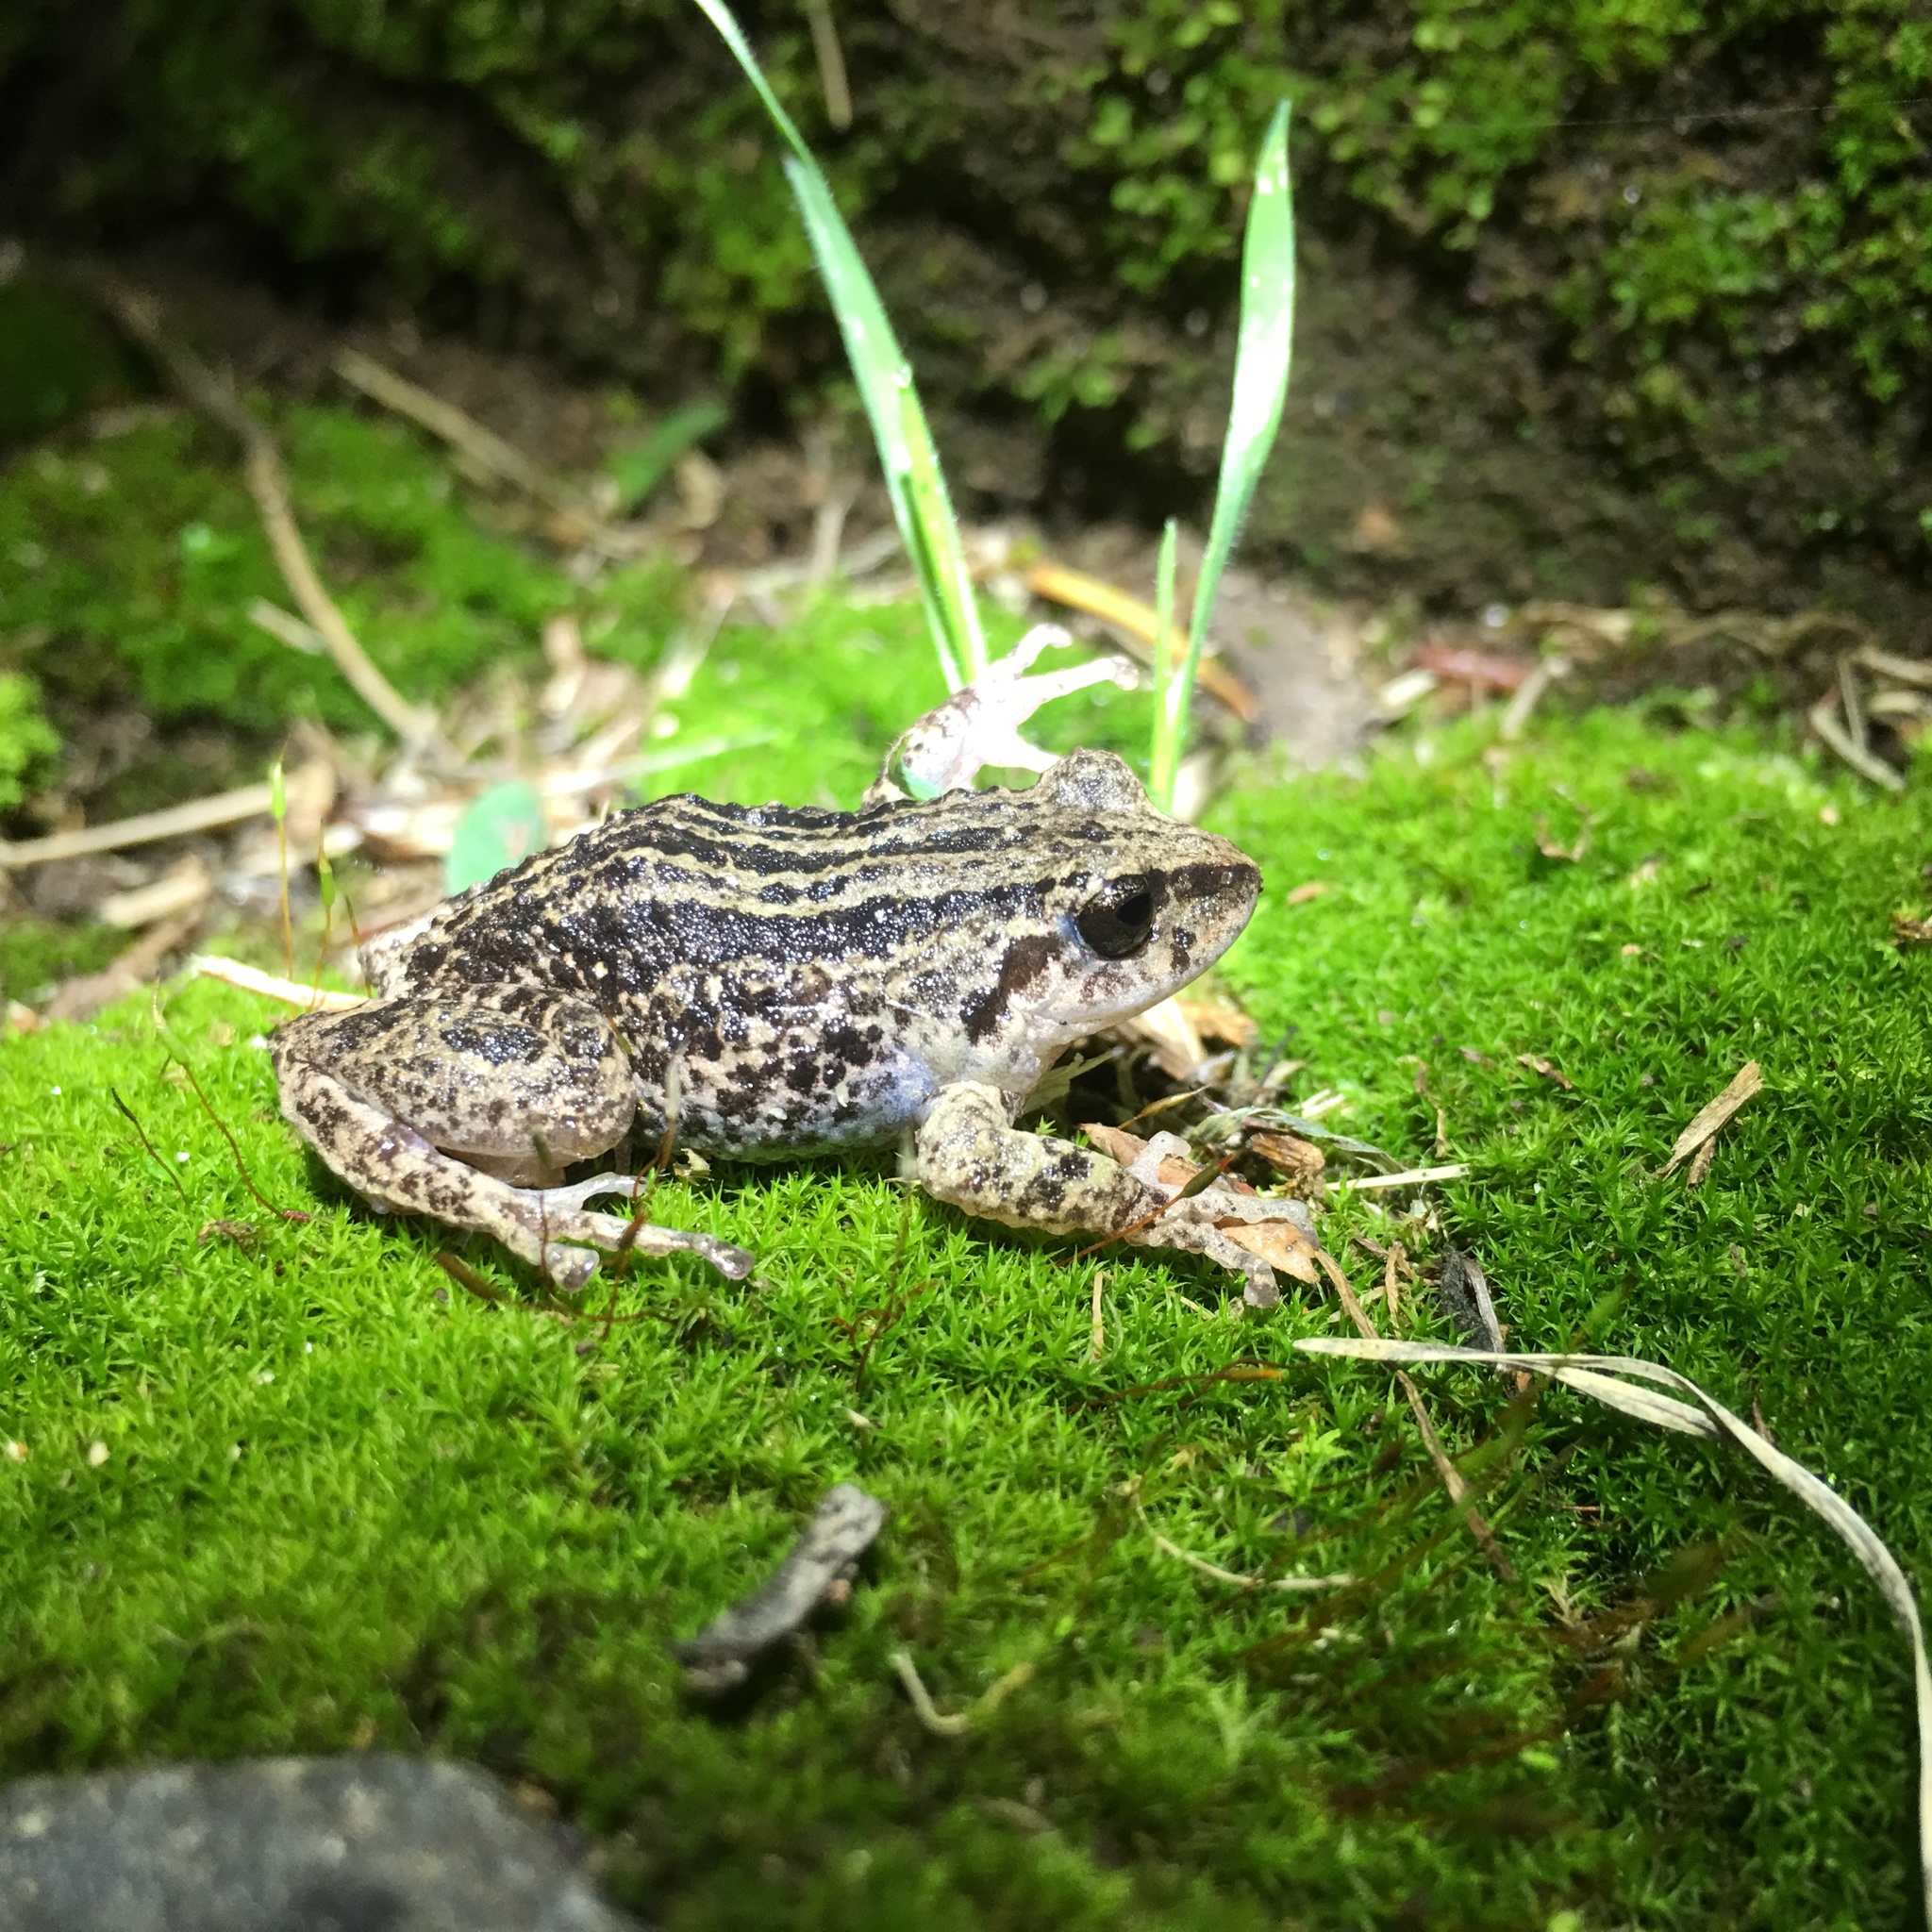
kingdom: Animalia
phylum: Chordata
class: Amphibia
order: Anura
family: Craugastoridae
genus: Pristimantis
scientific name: Pristimantis unistrigatus
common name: Striped robber frog
